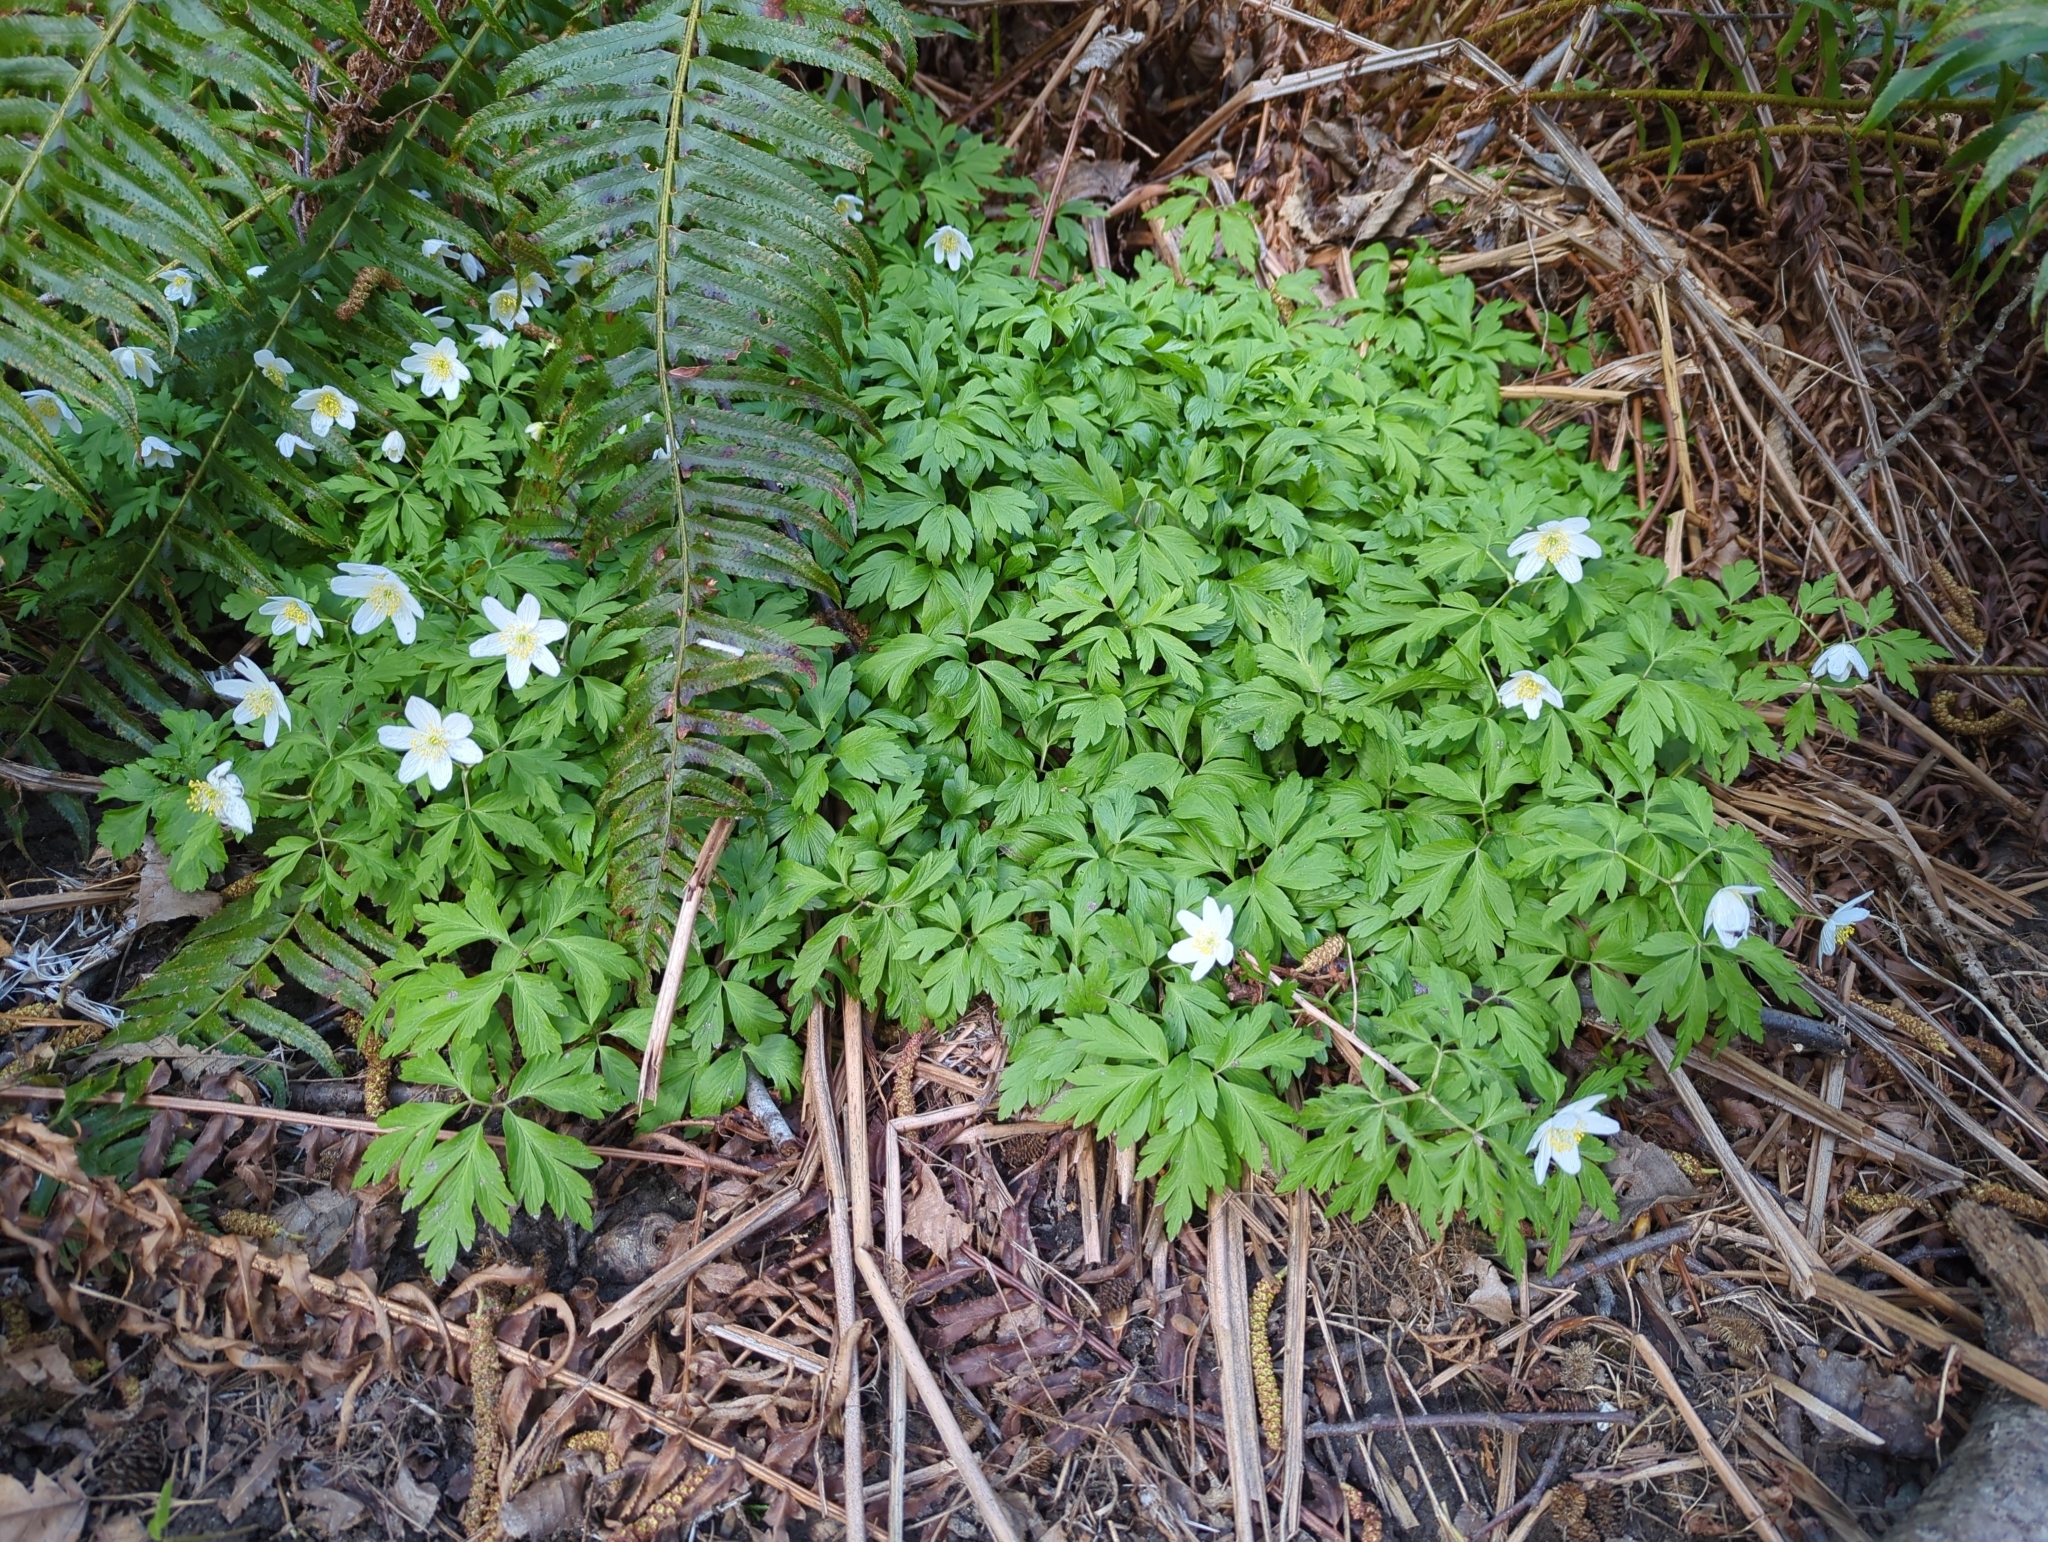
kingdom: Plantae
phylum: Tracheophyta
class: Magnoliopsida
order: Ranunculales
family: Ranunculaceae
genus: Anemone
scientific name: Anemone nemorosa
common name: Wood anemone
